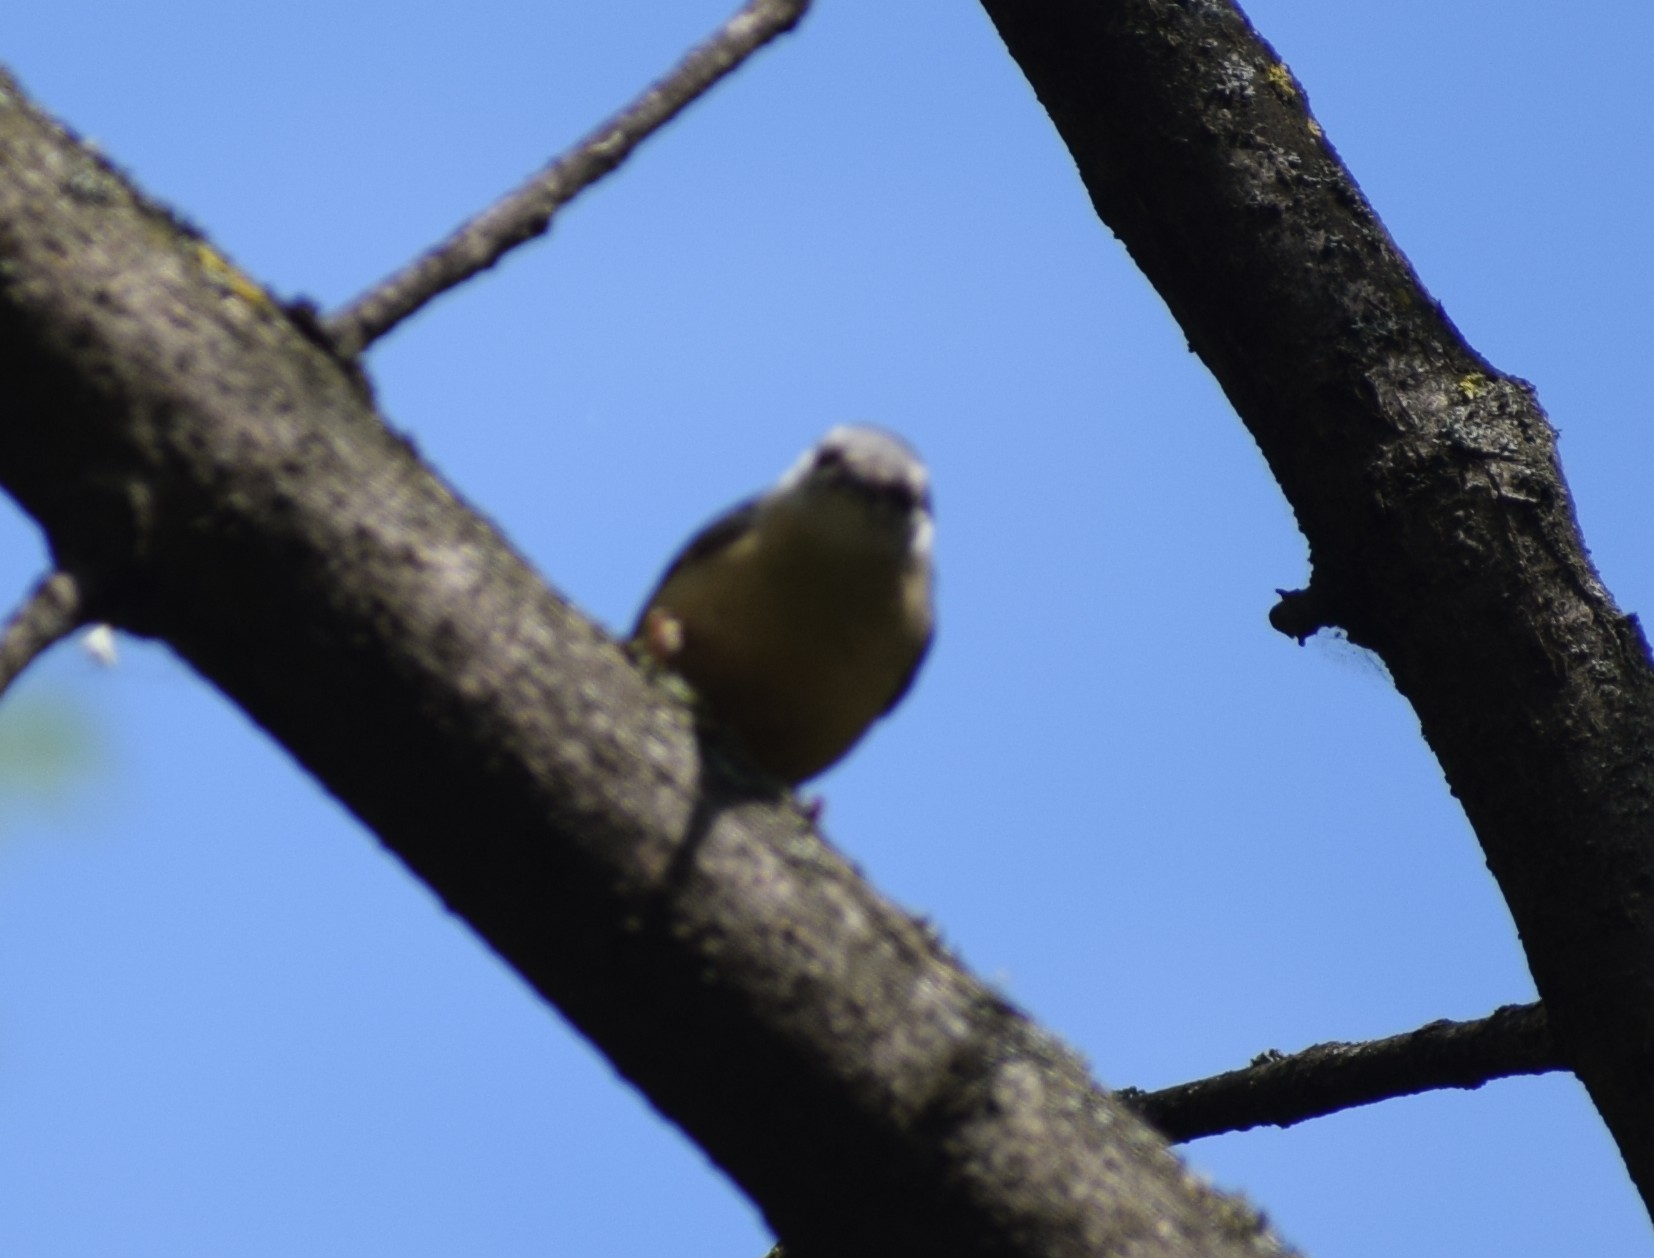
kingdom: Animalia
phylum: Chordata
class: Aves
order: Passeriformes
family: Sittidae
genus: Sitta
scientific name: Sitta europaea
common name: Eurasian nuthatch
